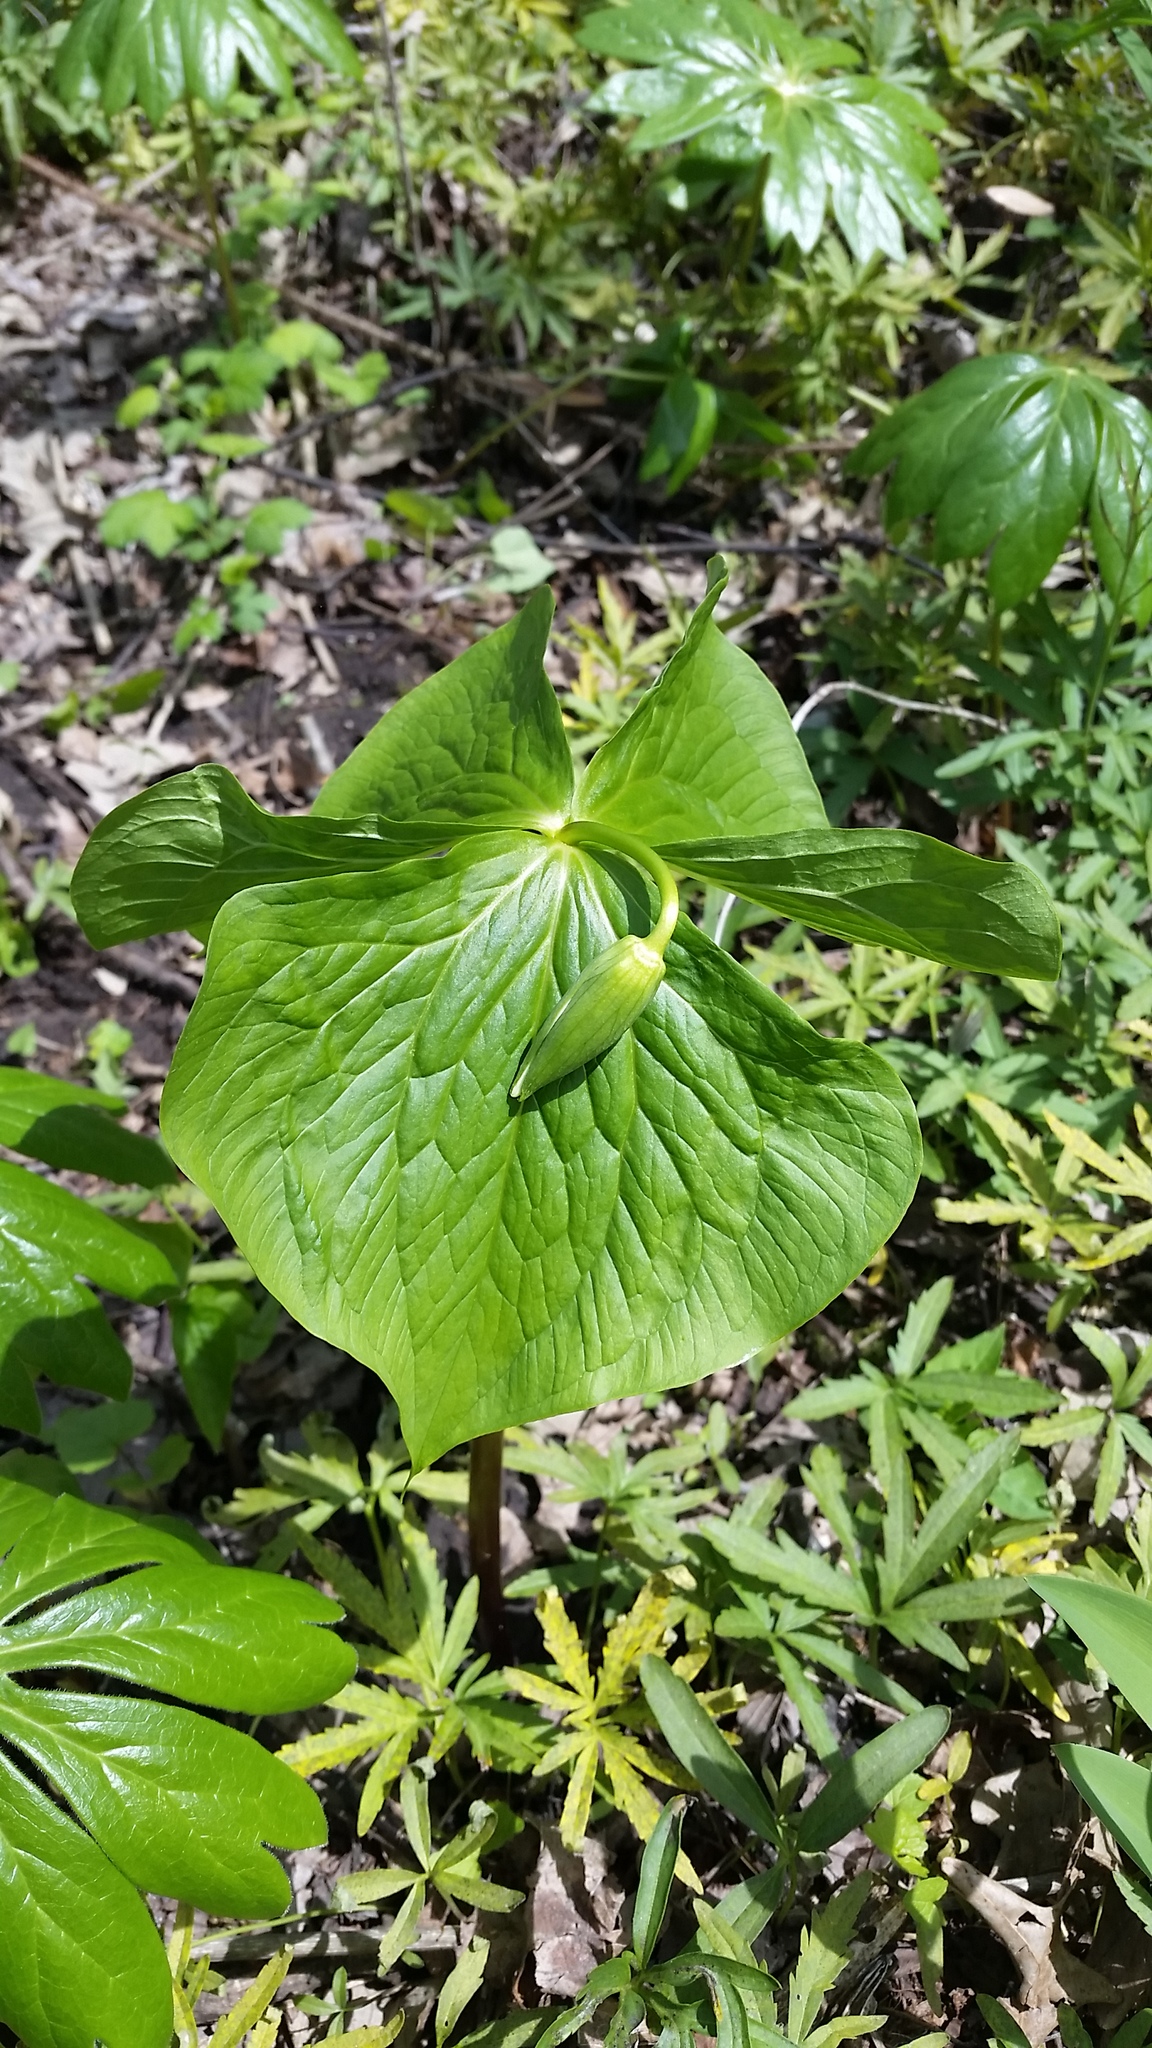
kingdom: Plantae
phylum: Tracheophyta
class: Liliopsida
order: Liliales
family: Melanthiaceae
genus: Trillium
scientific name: Trillium cernuum
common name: Nodding trillium
